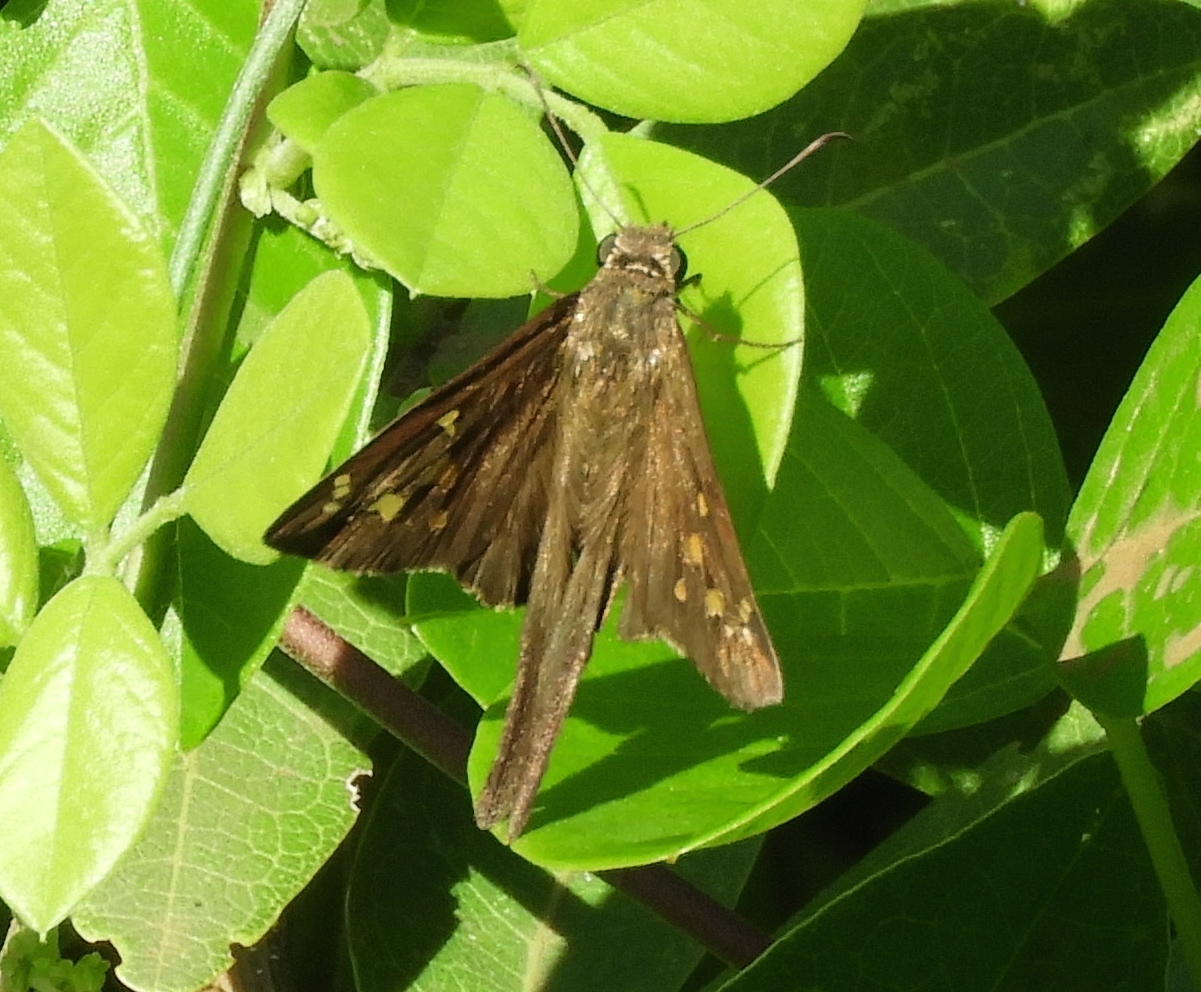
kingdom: Animalia
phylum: Arthropoda
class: Insecta
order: Lepidoptera
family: Hesperiidae
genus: Thorybes
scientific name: Thorybes
